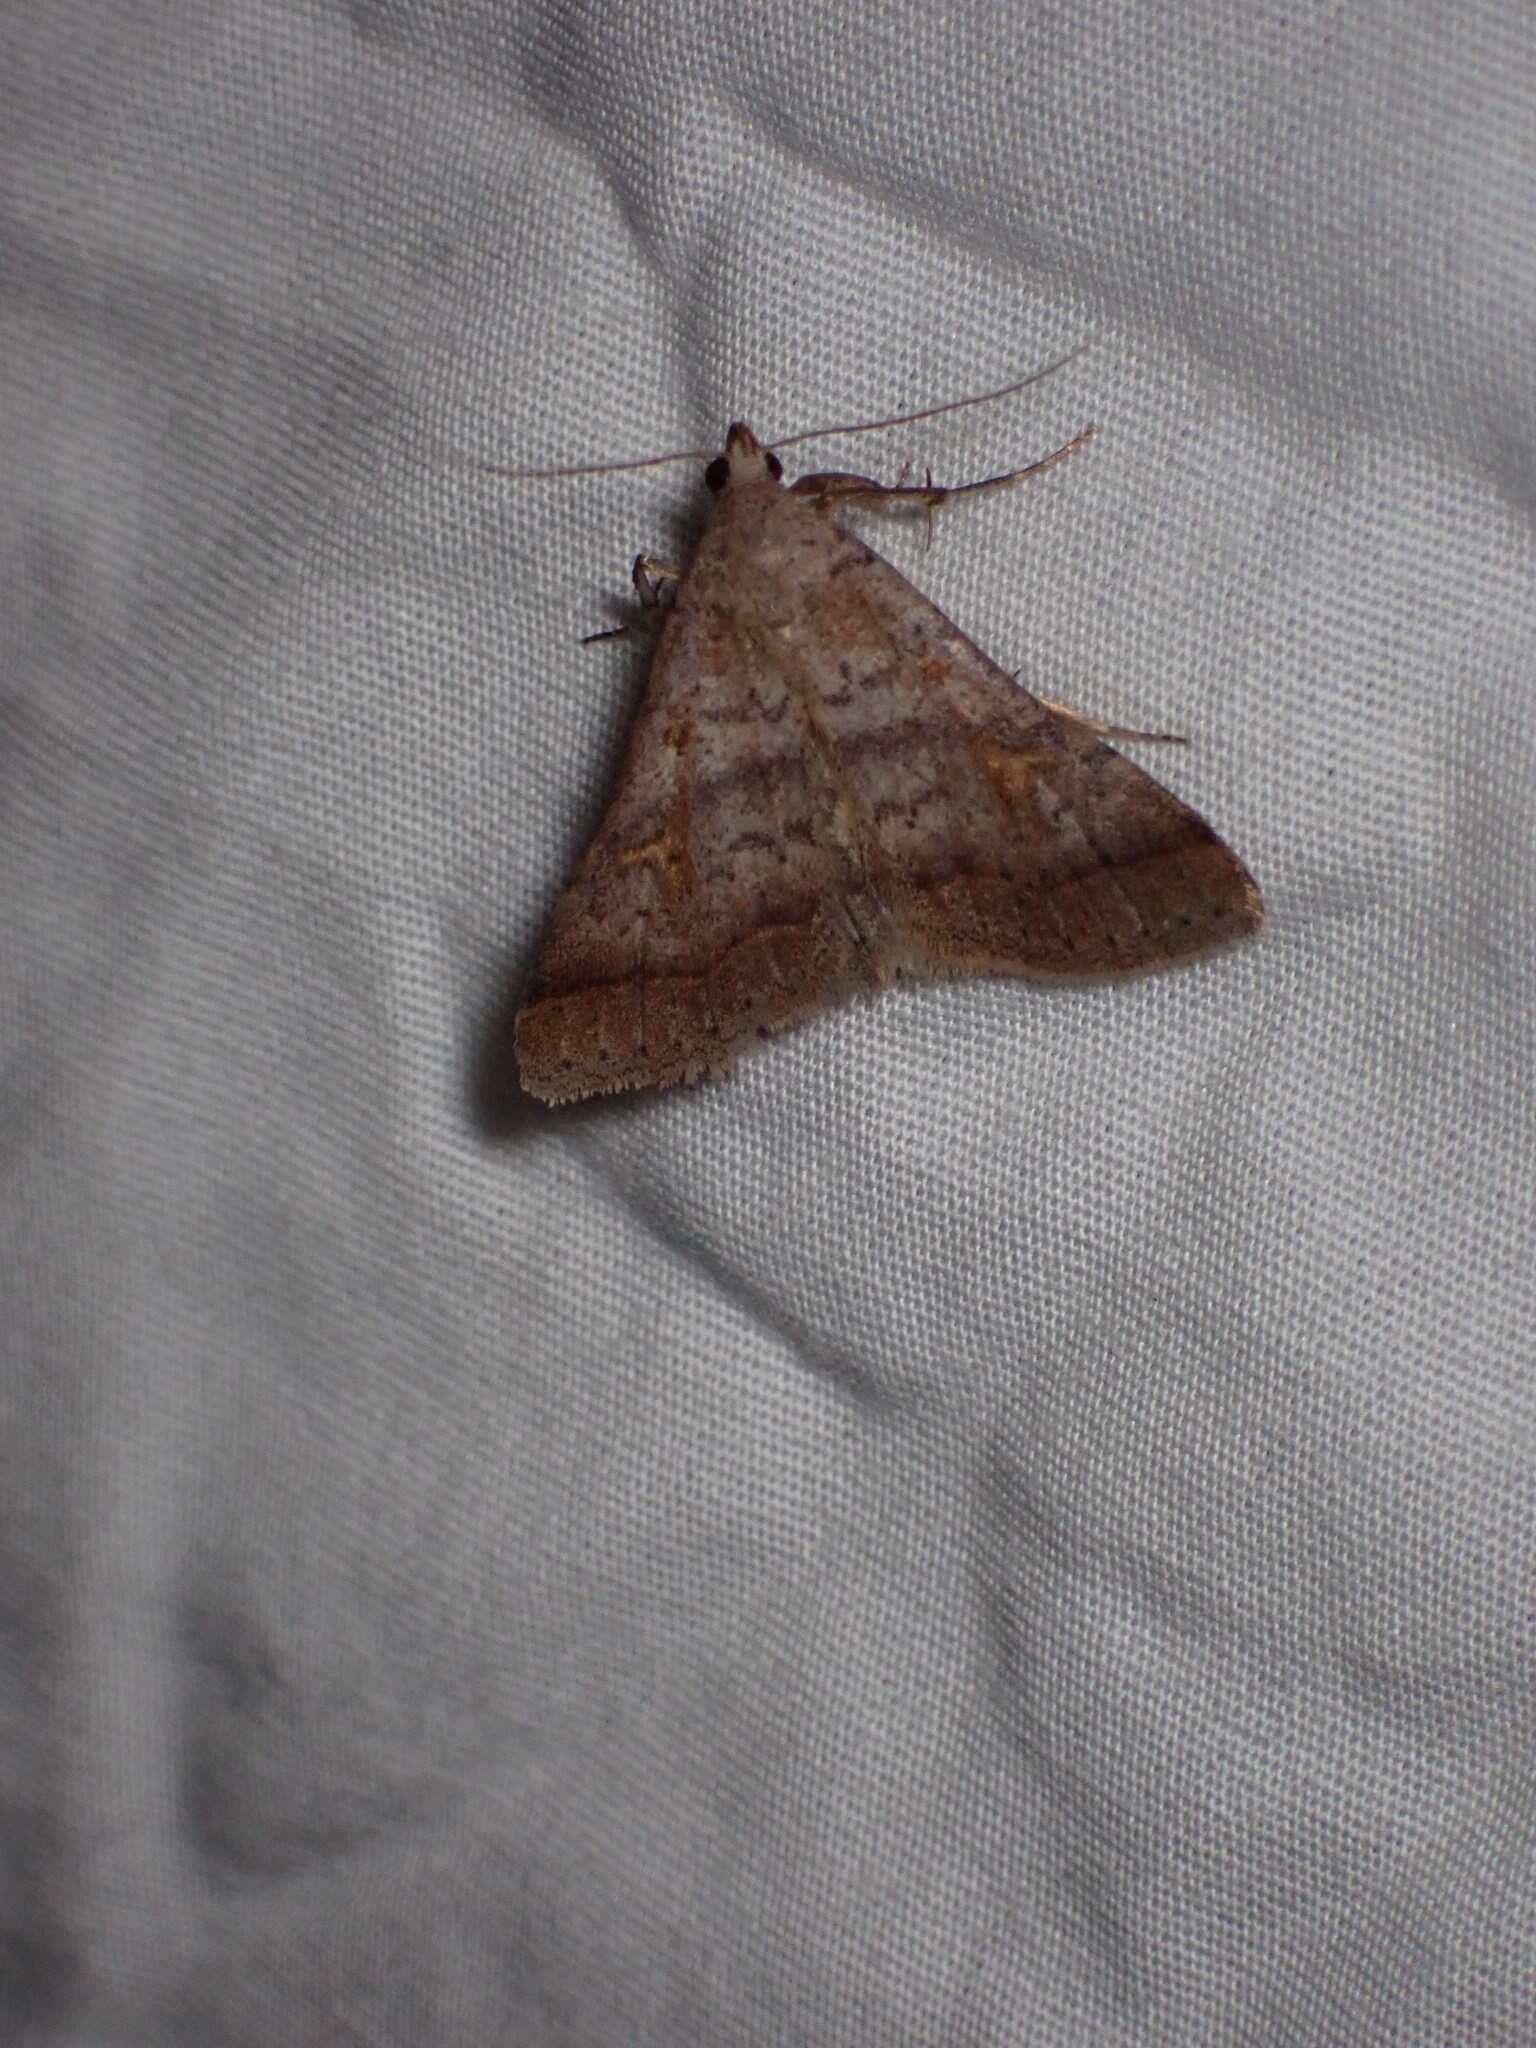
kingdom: Animalia
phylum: Arthropoda
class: Insecta
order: Lepidoptera
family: Erebidae
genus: Bleptina
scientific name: Bleptina caradrinalis
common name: Bent-winged owlet
